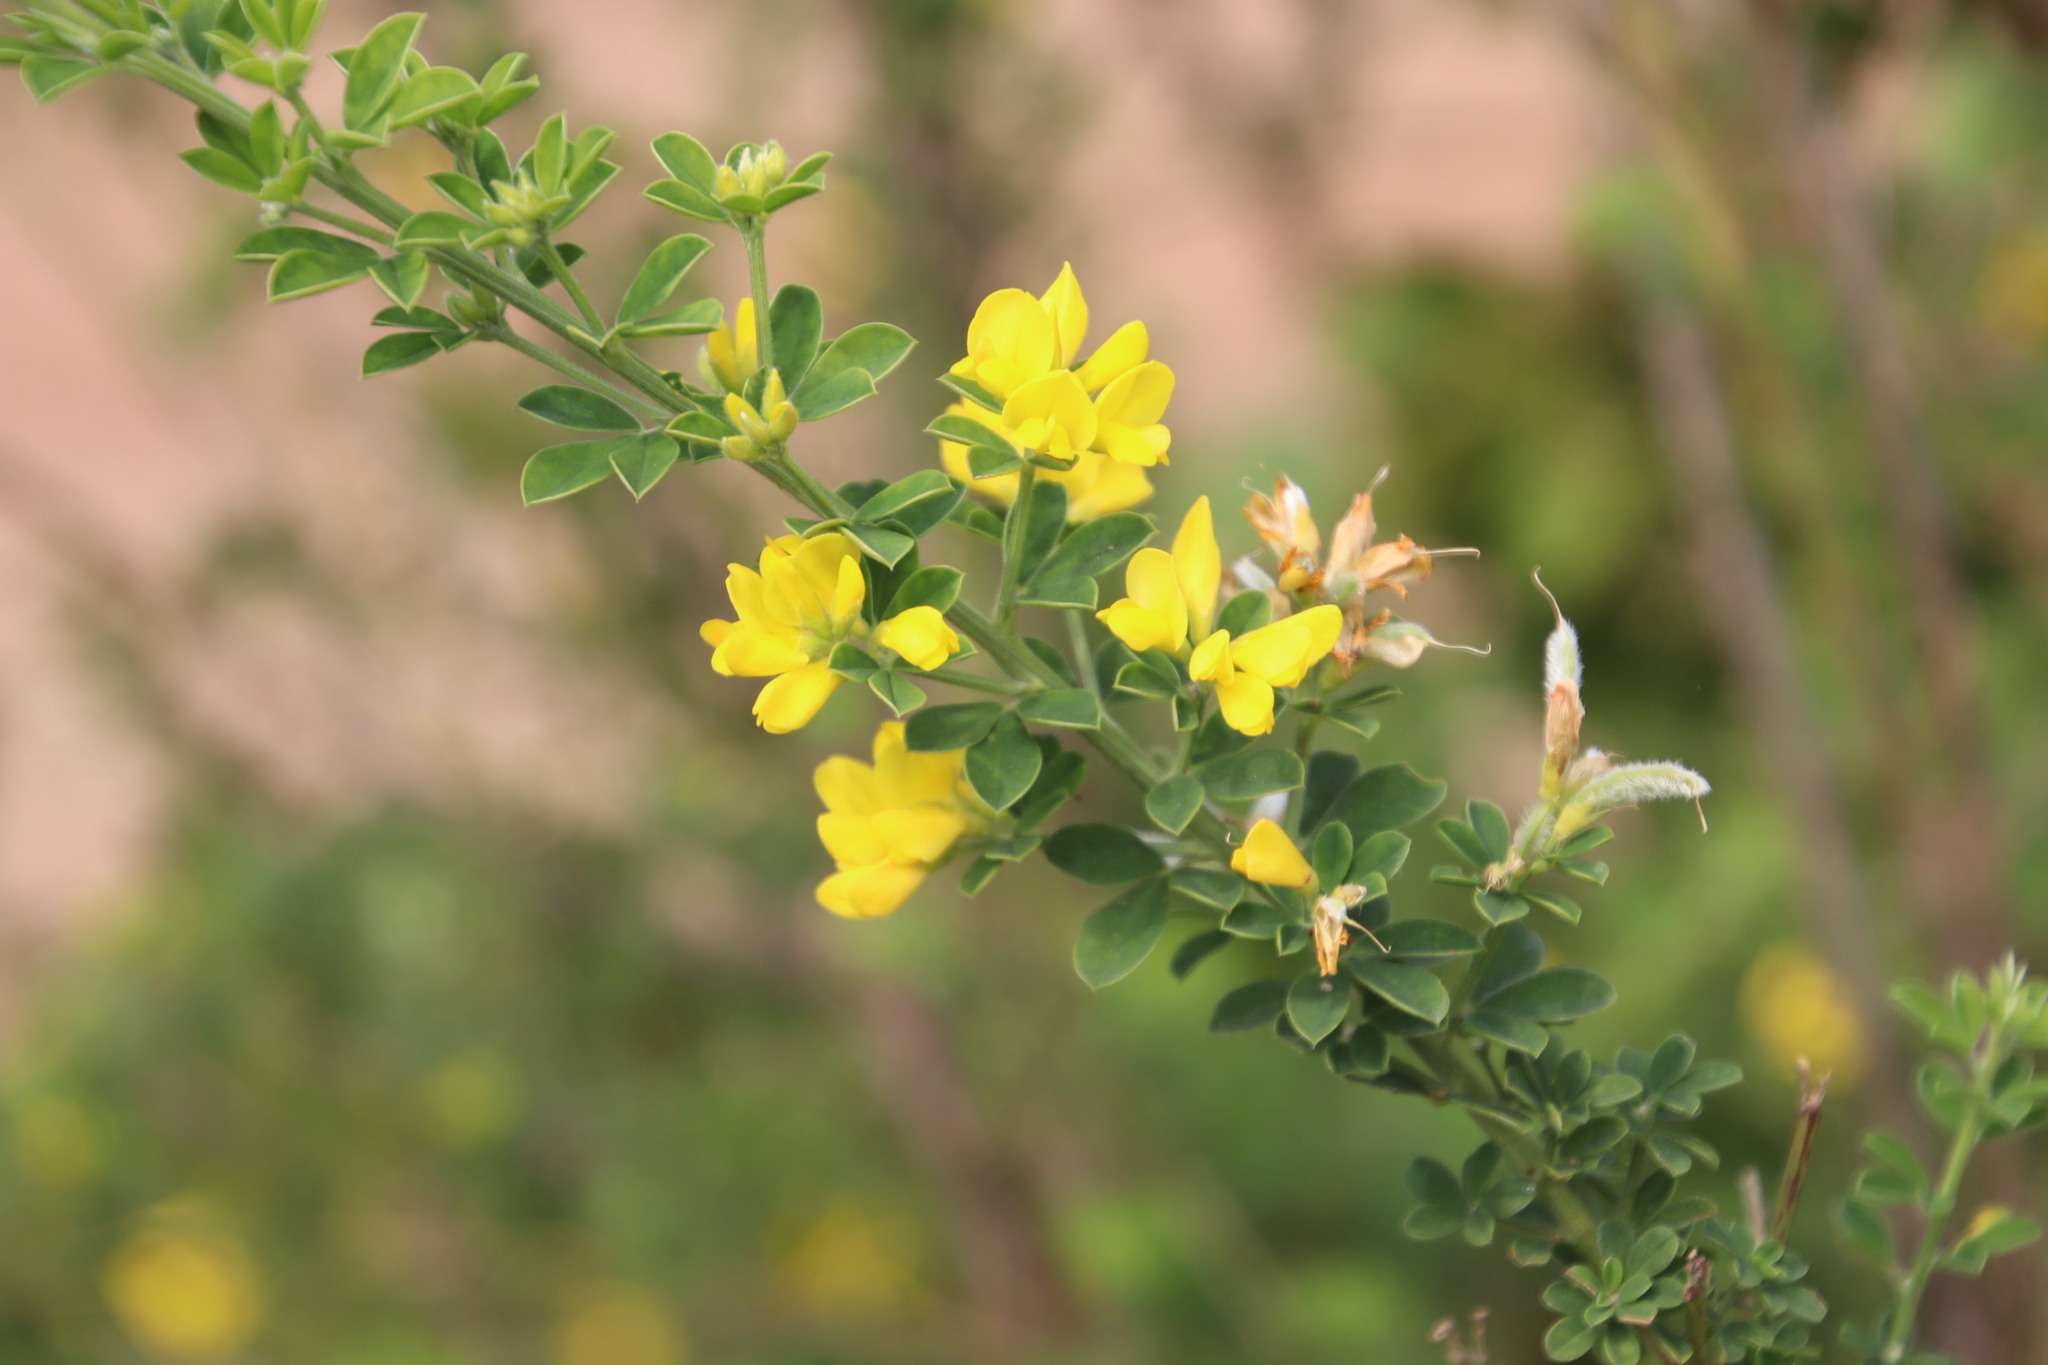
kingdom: Plantae
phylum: Tracheophyta
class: Magnoliopsida
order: Fabales
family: Fabaceae
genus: Genista
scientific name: Genista monspessulana
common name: Montpellier broom
